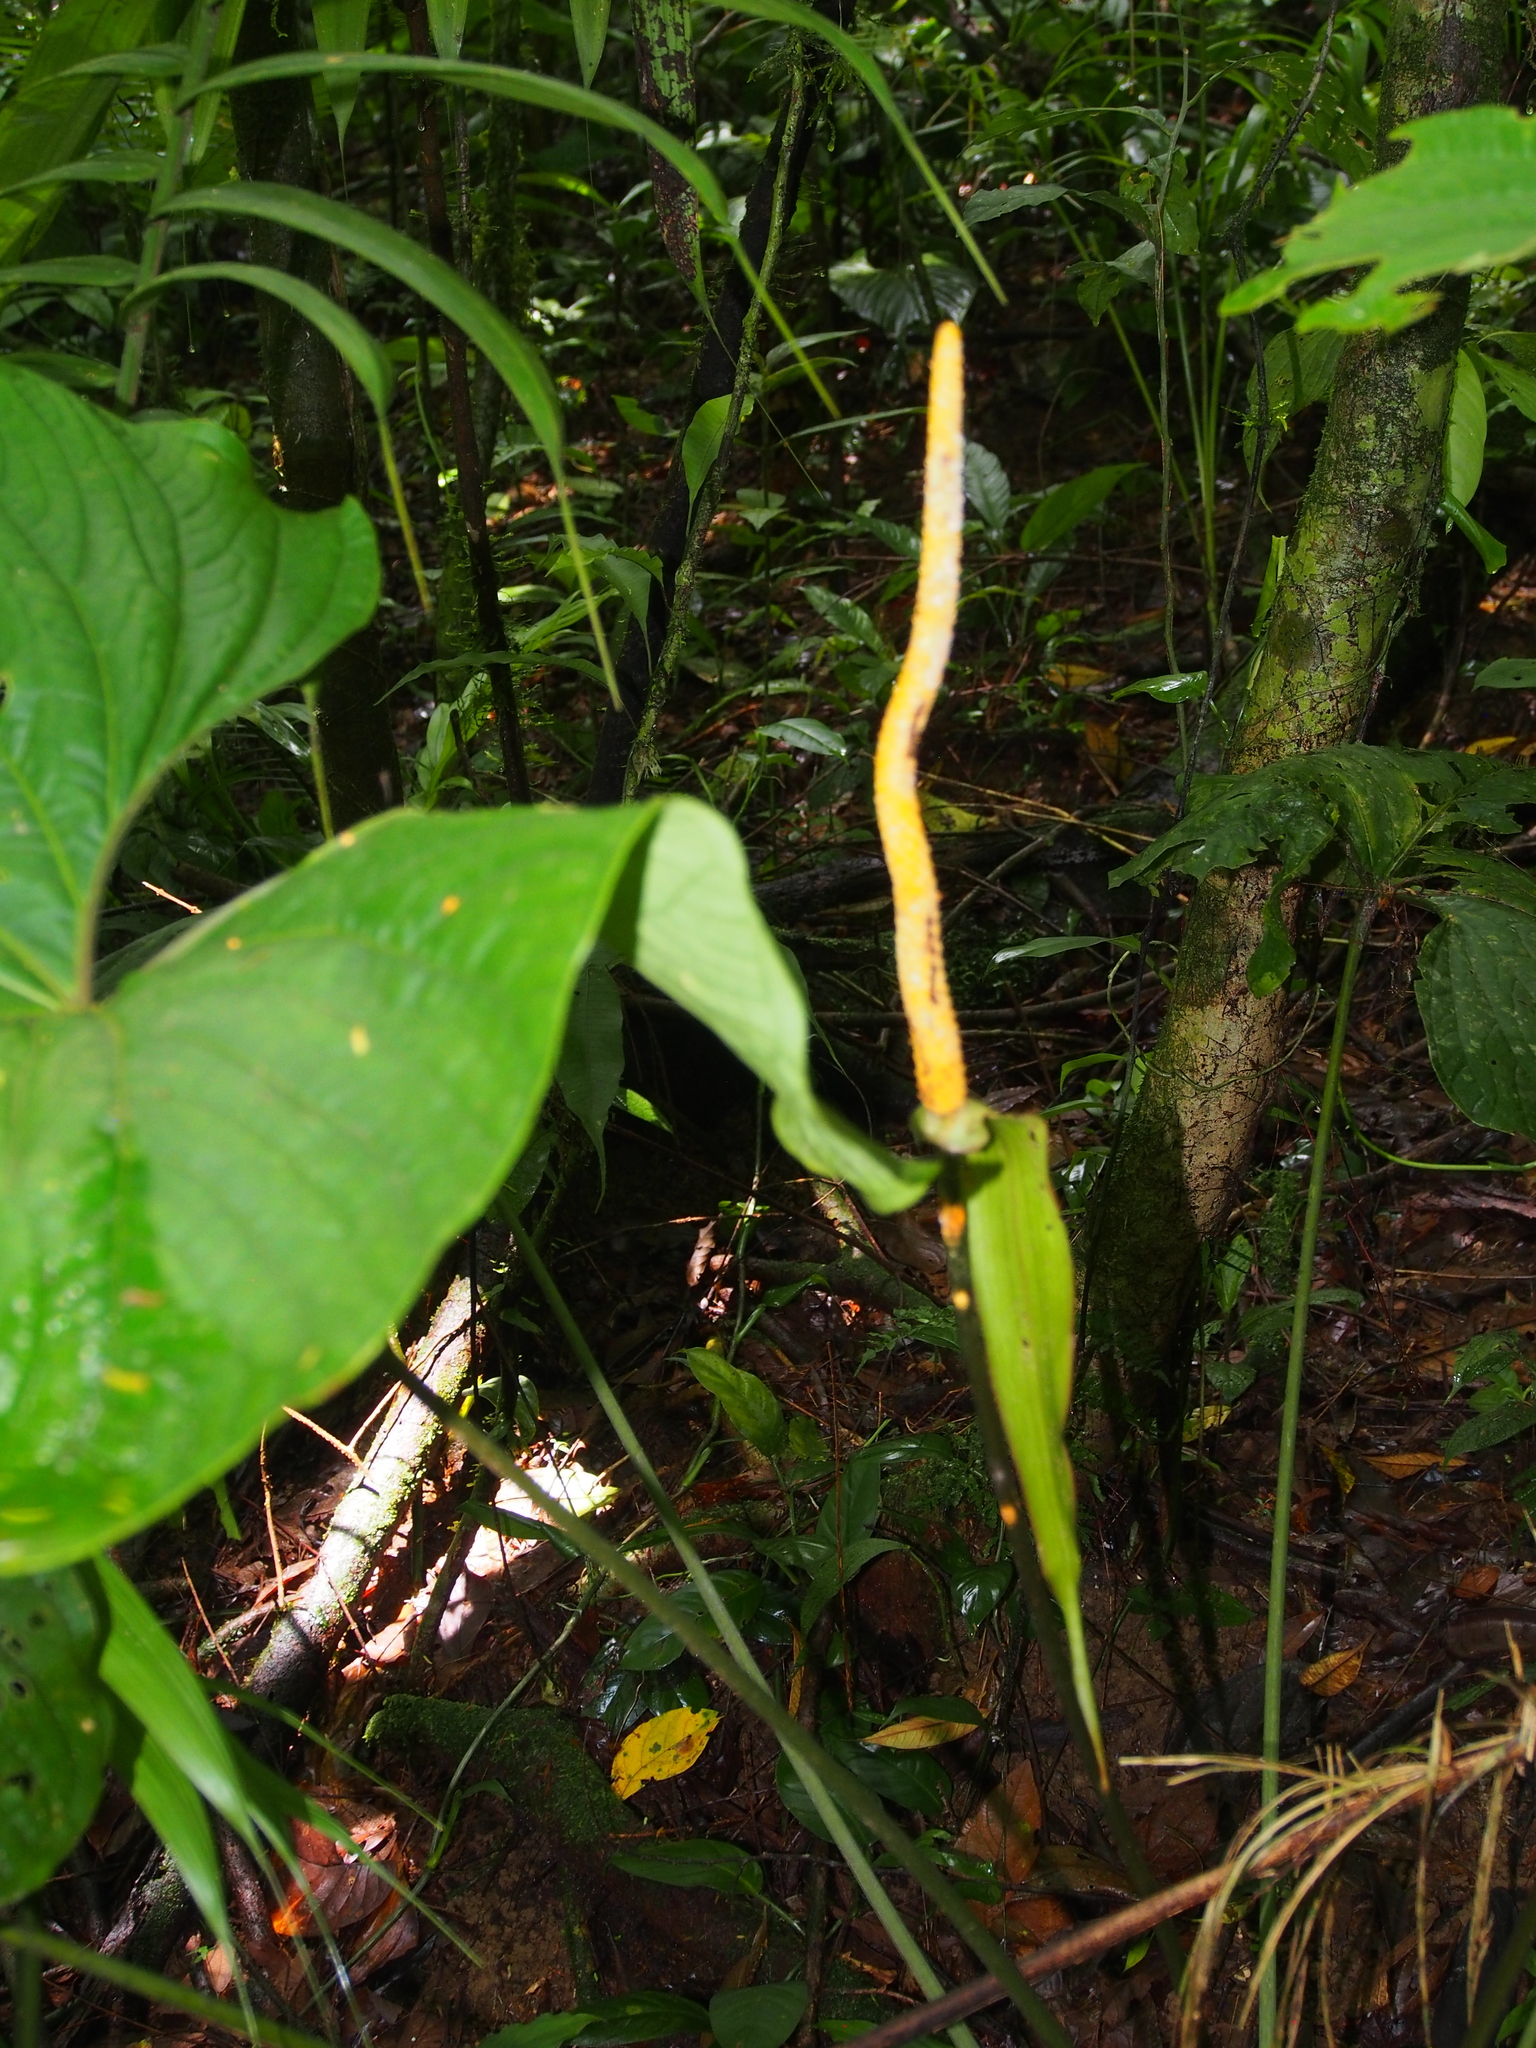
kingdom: Plantae
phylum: Tracheophyta
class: Liliopsida
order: Alismatales
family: Araceae
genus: Anthurium
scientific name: Anthurium ochranthum
